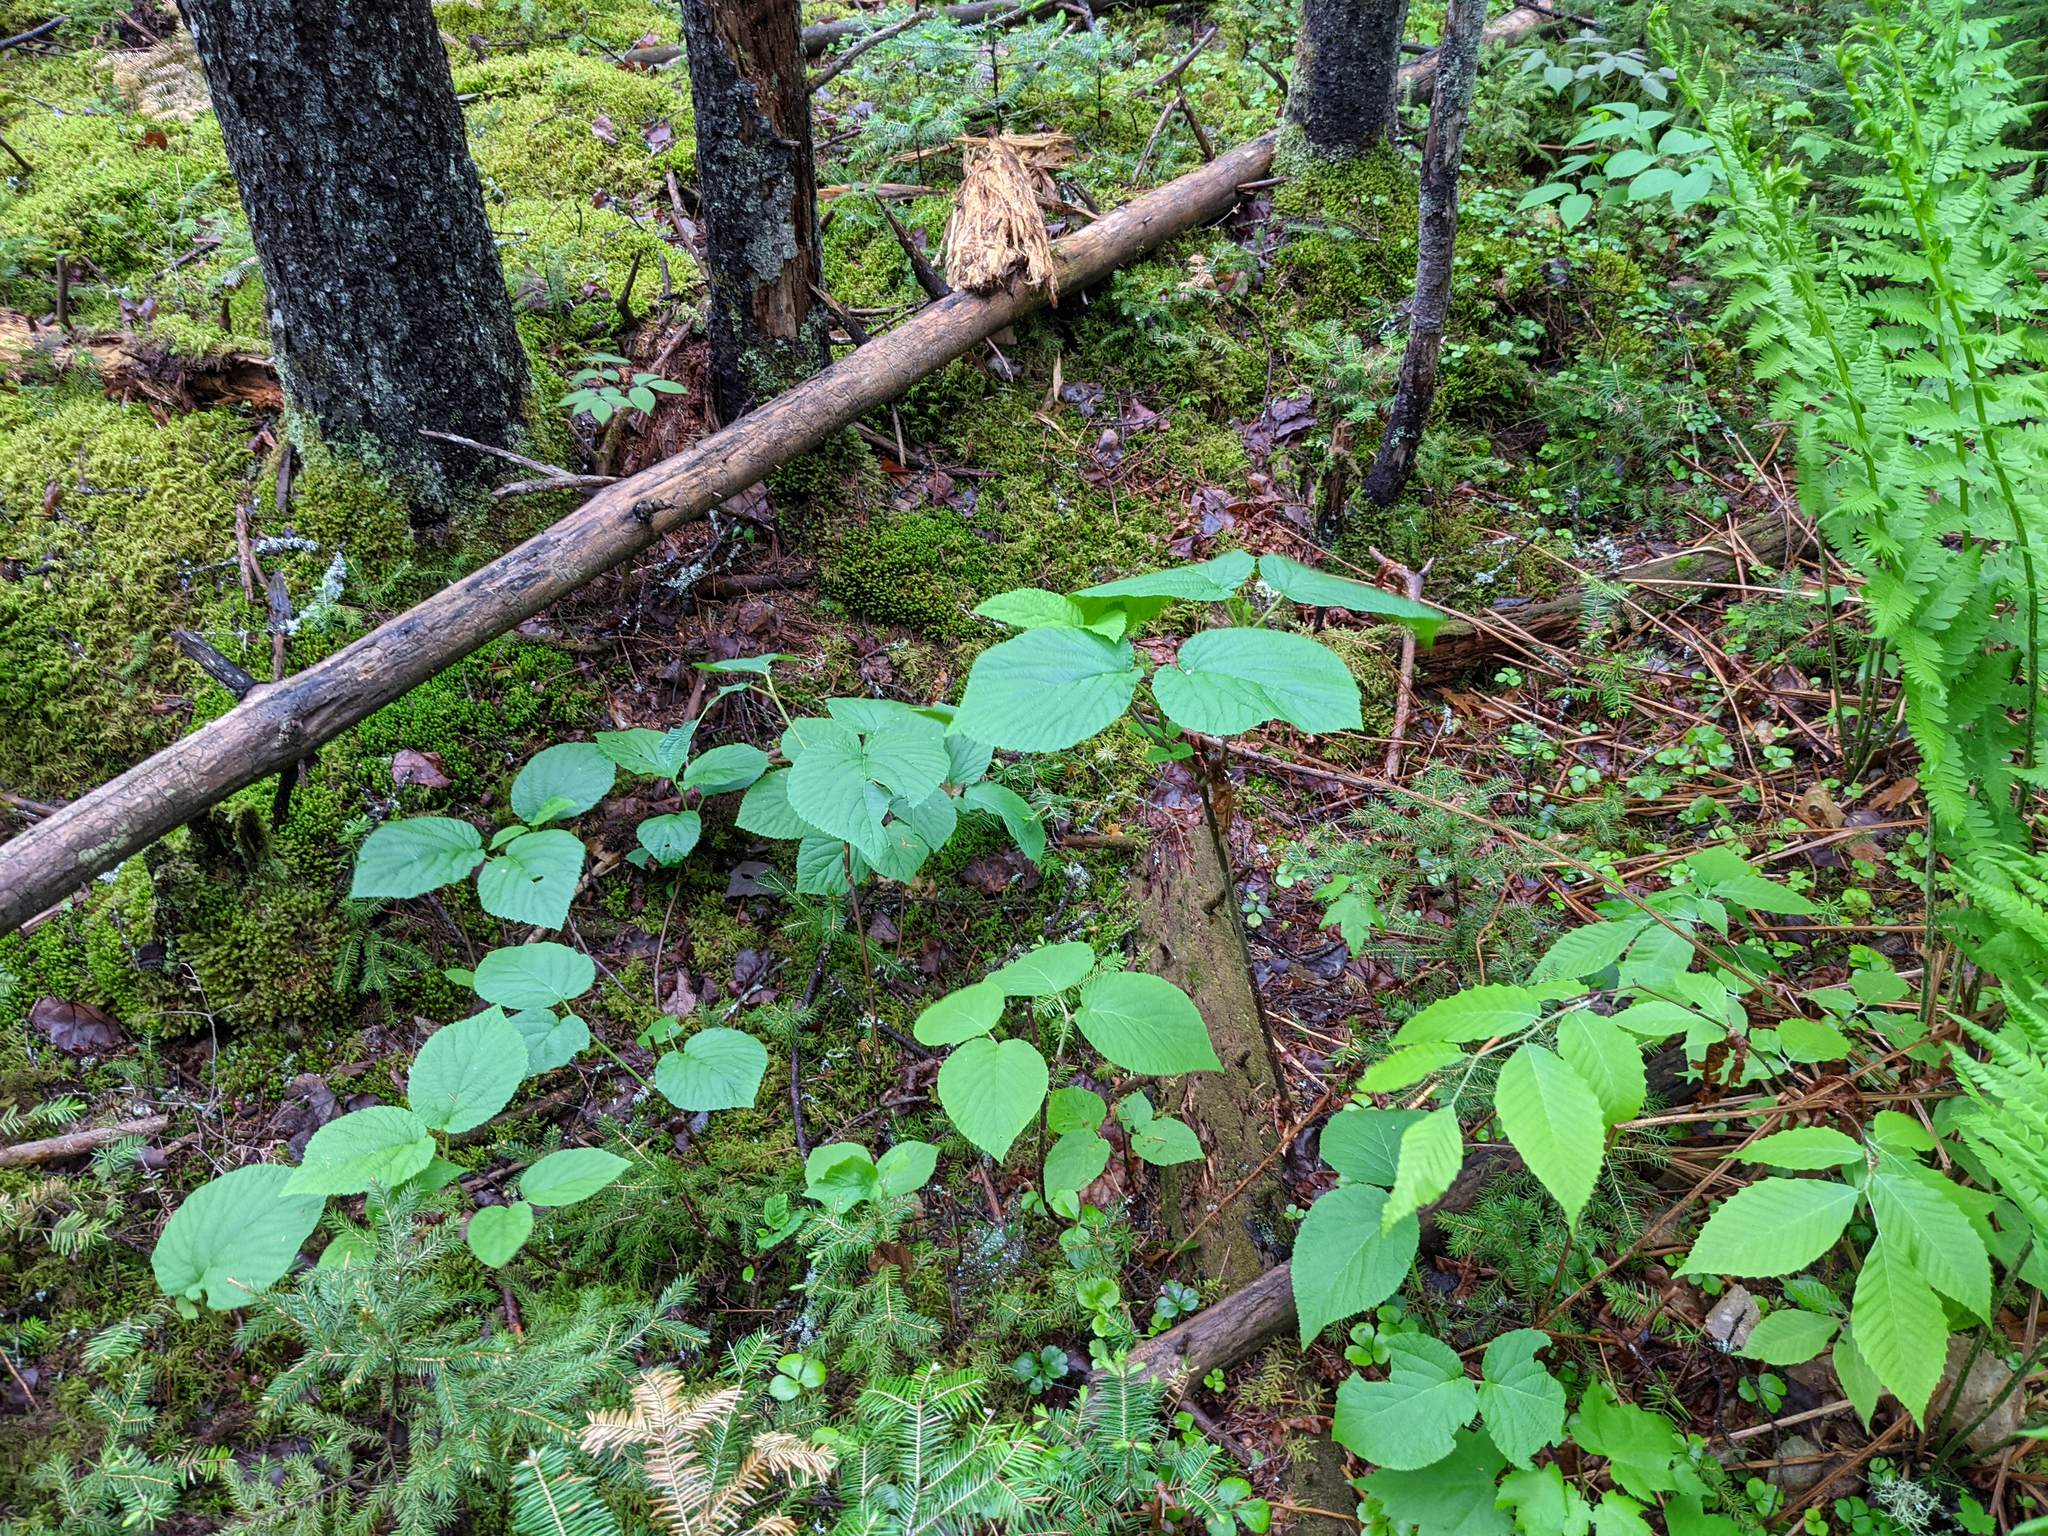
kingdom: Plantae
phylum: Tracheophyta
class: Magnoliopsida
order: Dipsacales
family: Viburnaceae
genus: Viburnum
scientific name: Viburnum lantanoides
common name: Hobblebush
